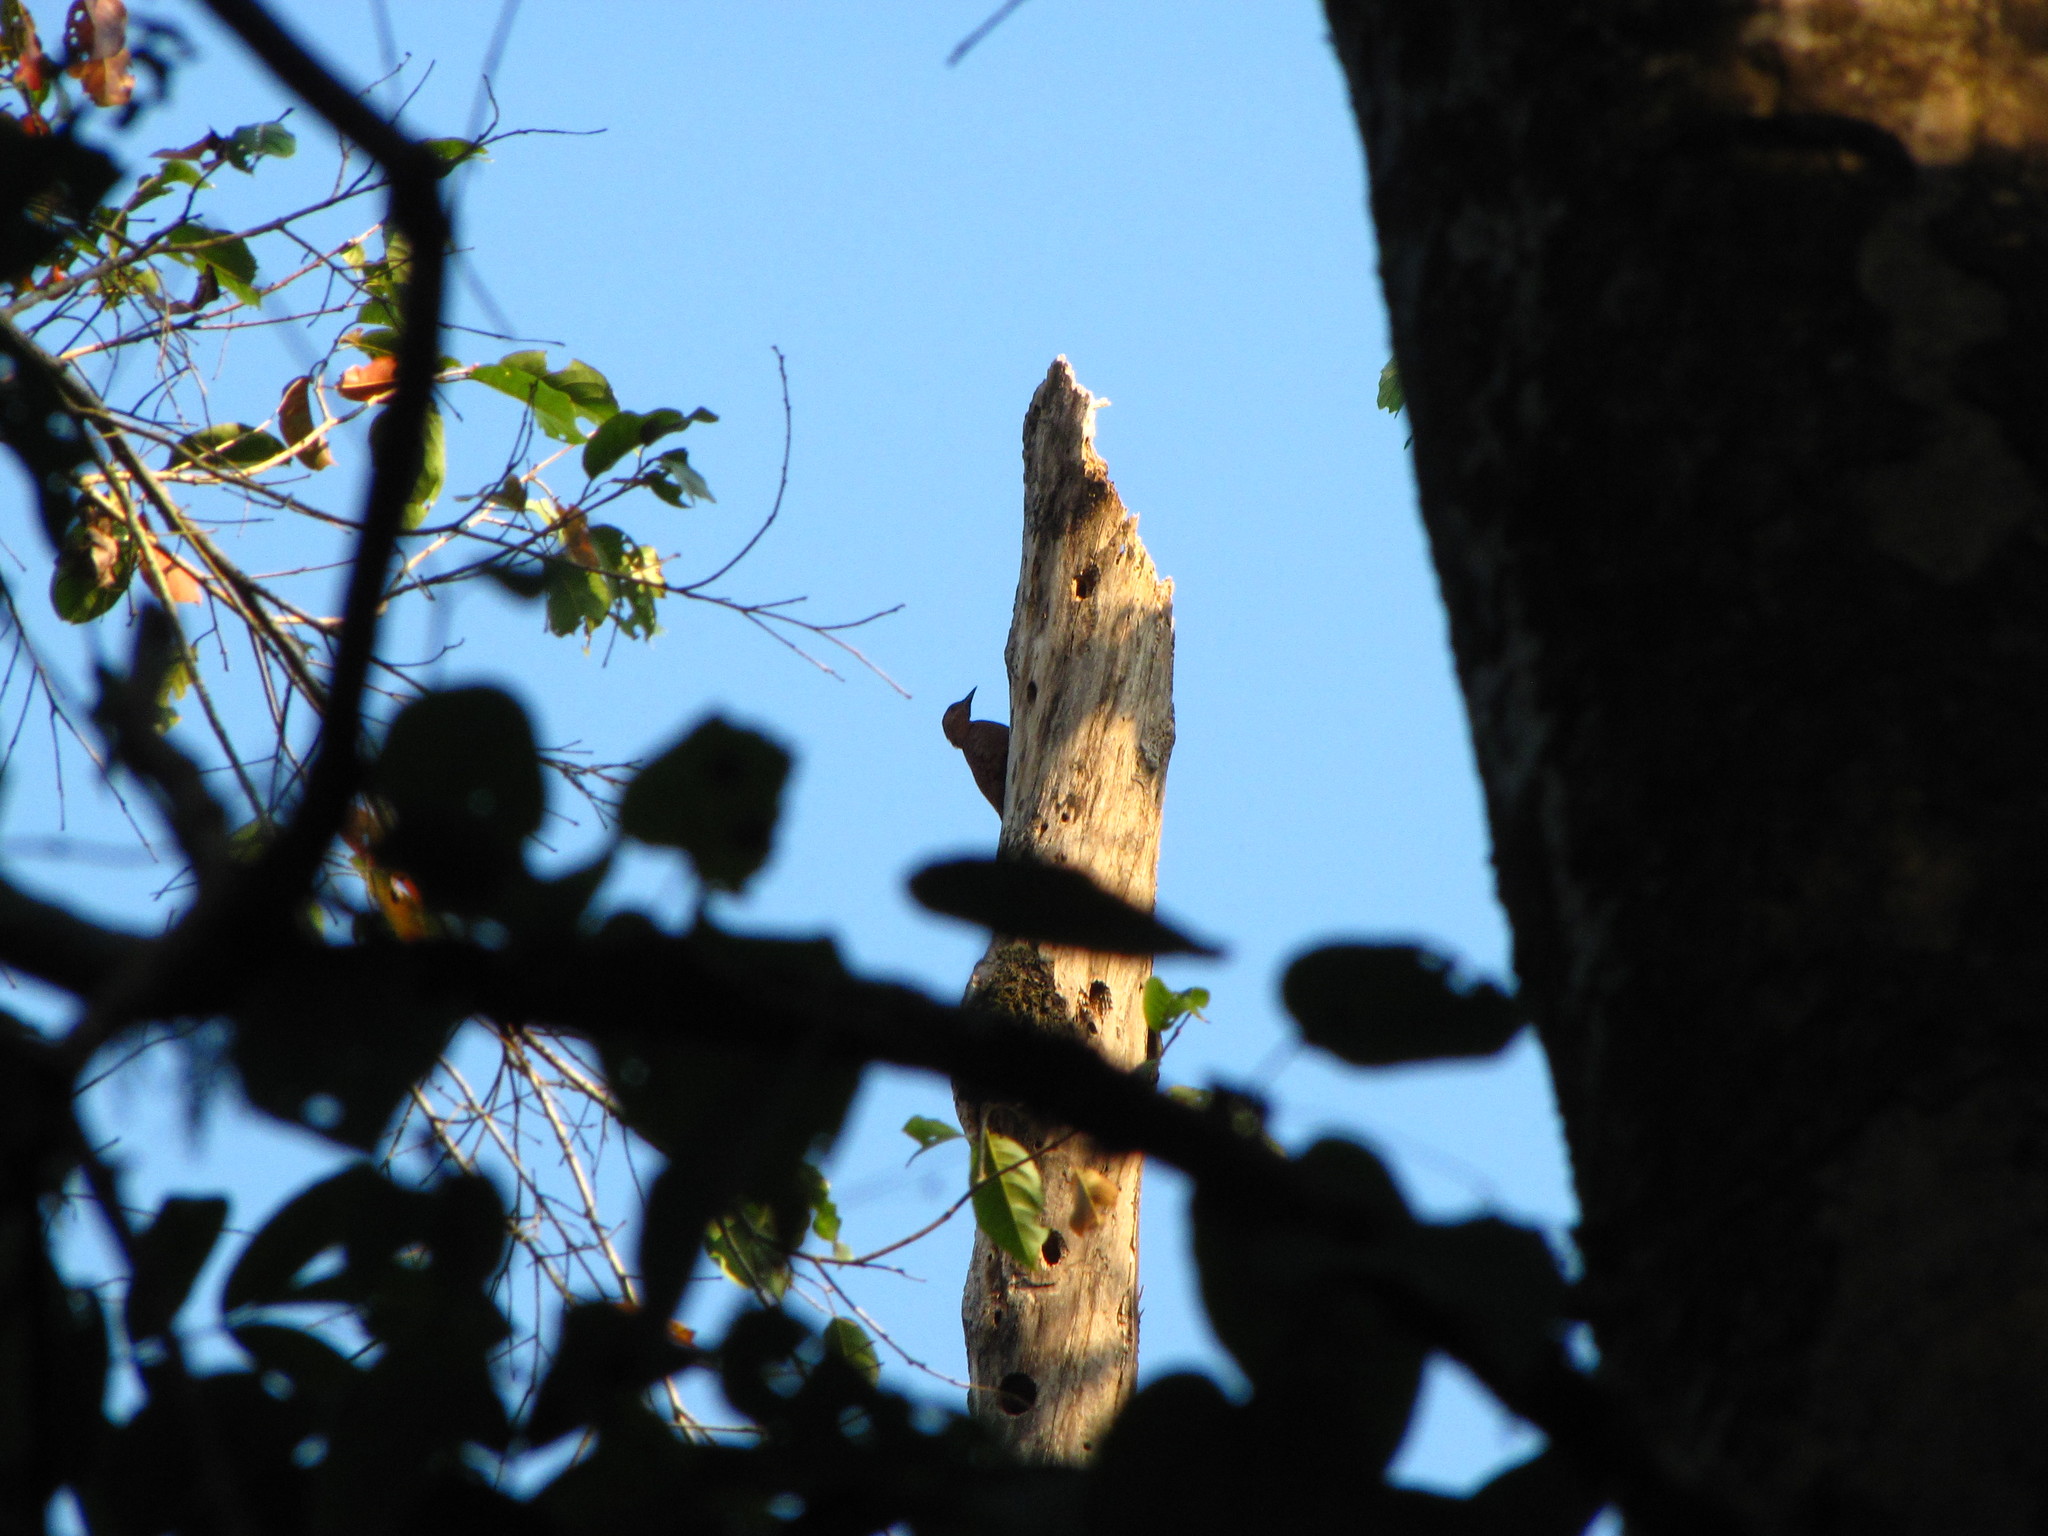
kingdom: Animalia
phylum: Chordata
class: Aves
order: Piciformes
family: Picidae
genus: Micropternus
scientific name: Micropternus brachyurus
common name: Rufous woodpecker
